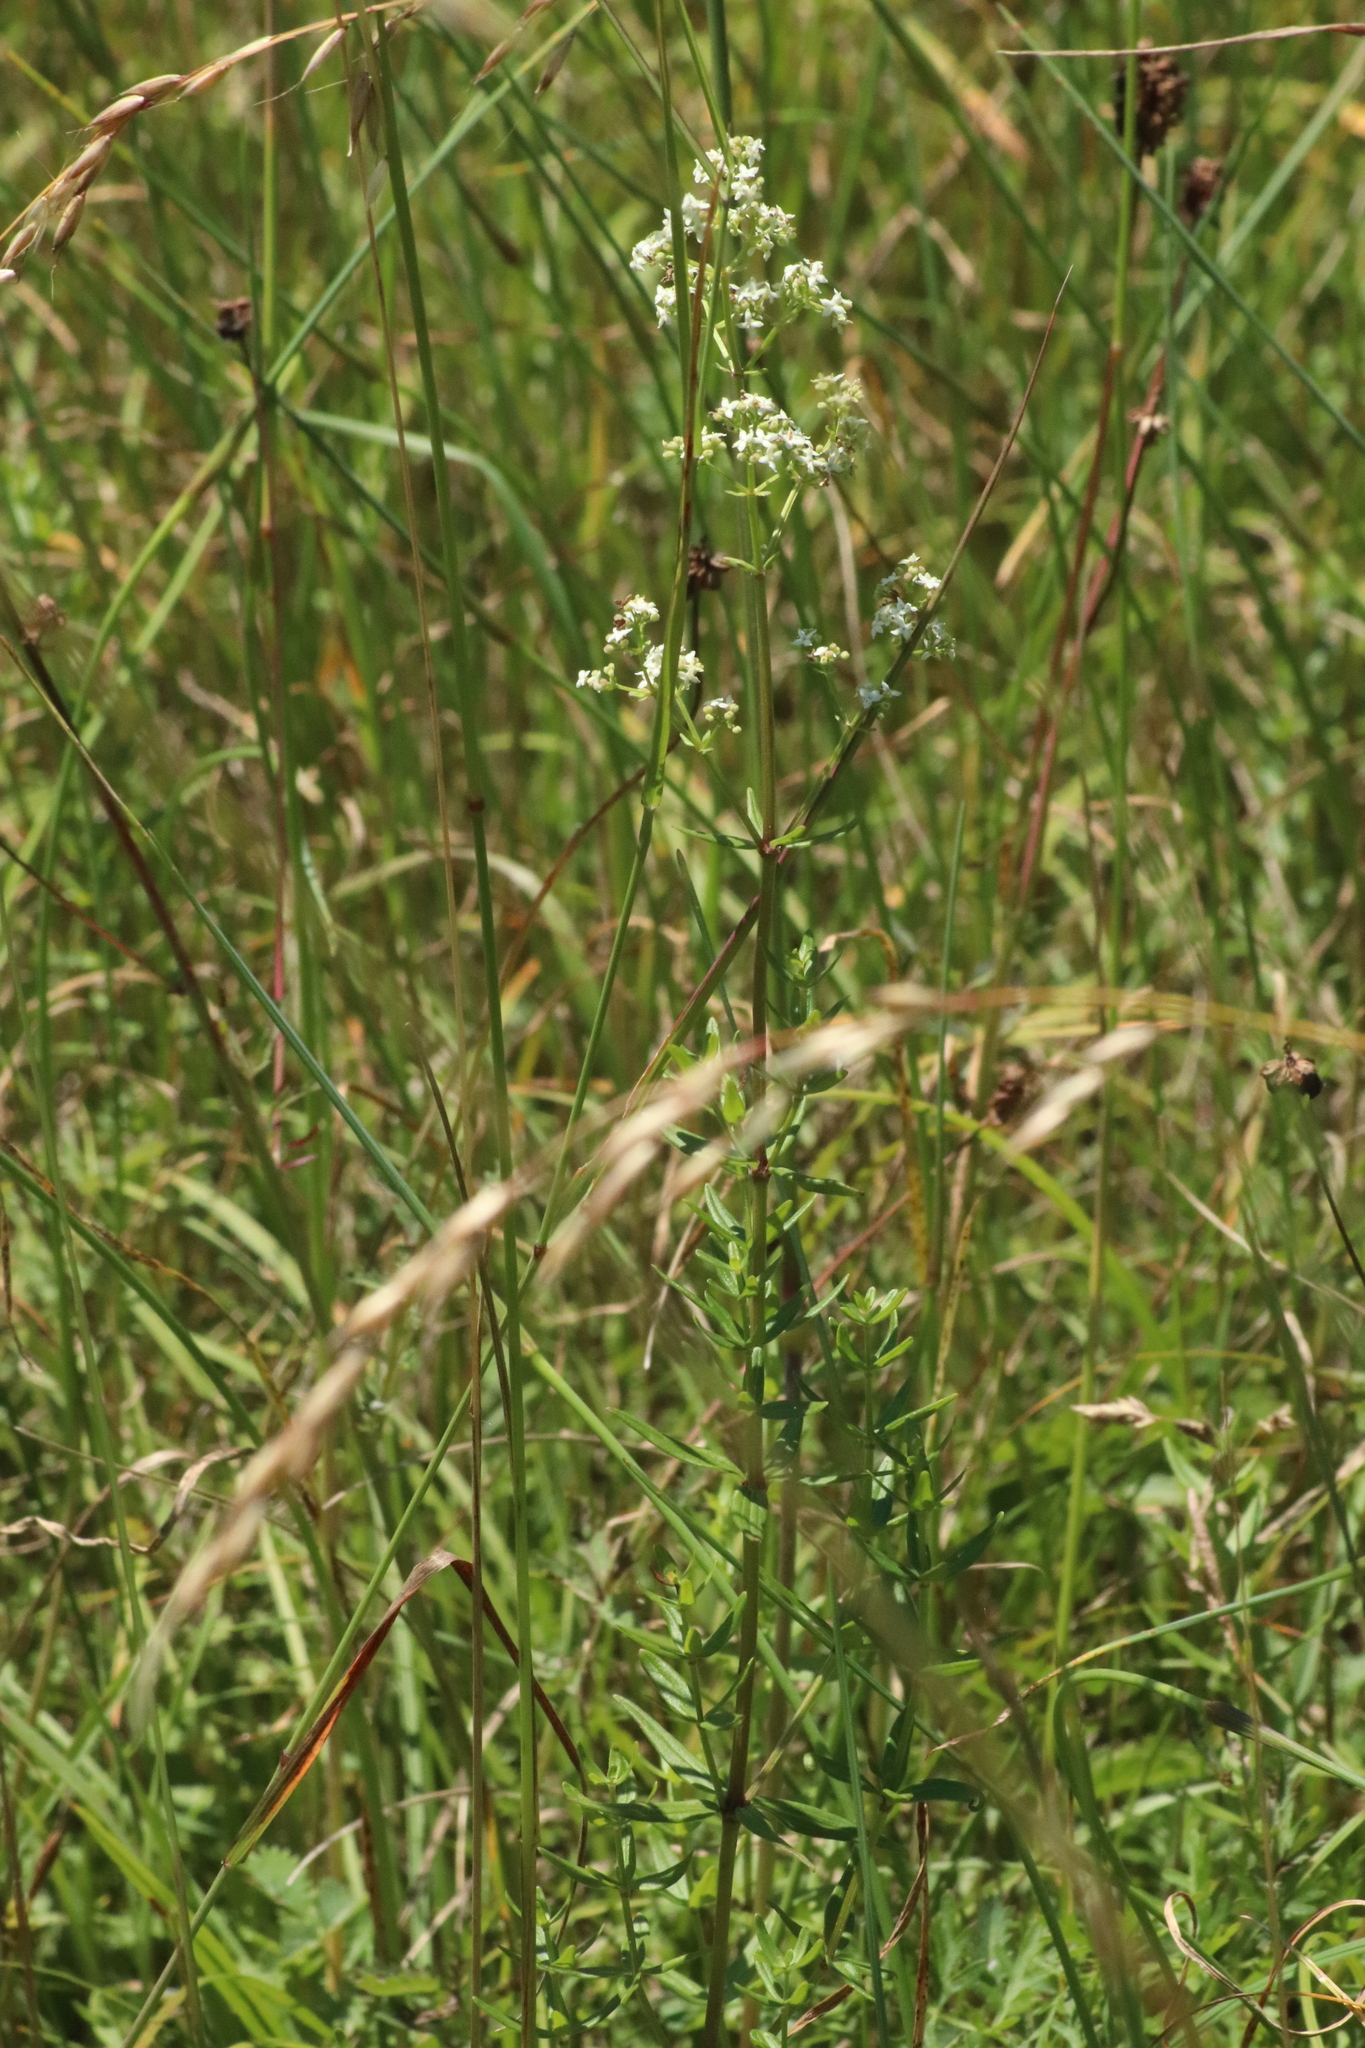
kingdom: Plantae
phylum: Tracheophyta
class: Magnoliopsida
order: Gentianales
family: Rubiaceae
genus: Galium
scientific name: Galium boreale
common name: Northern bedstraw
